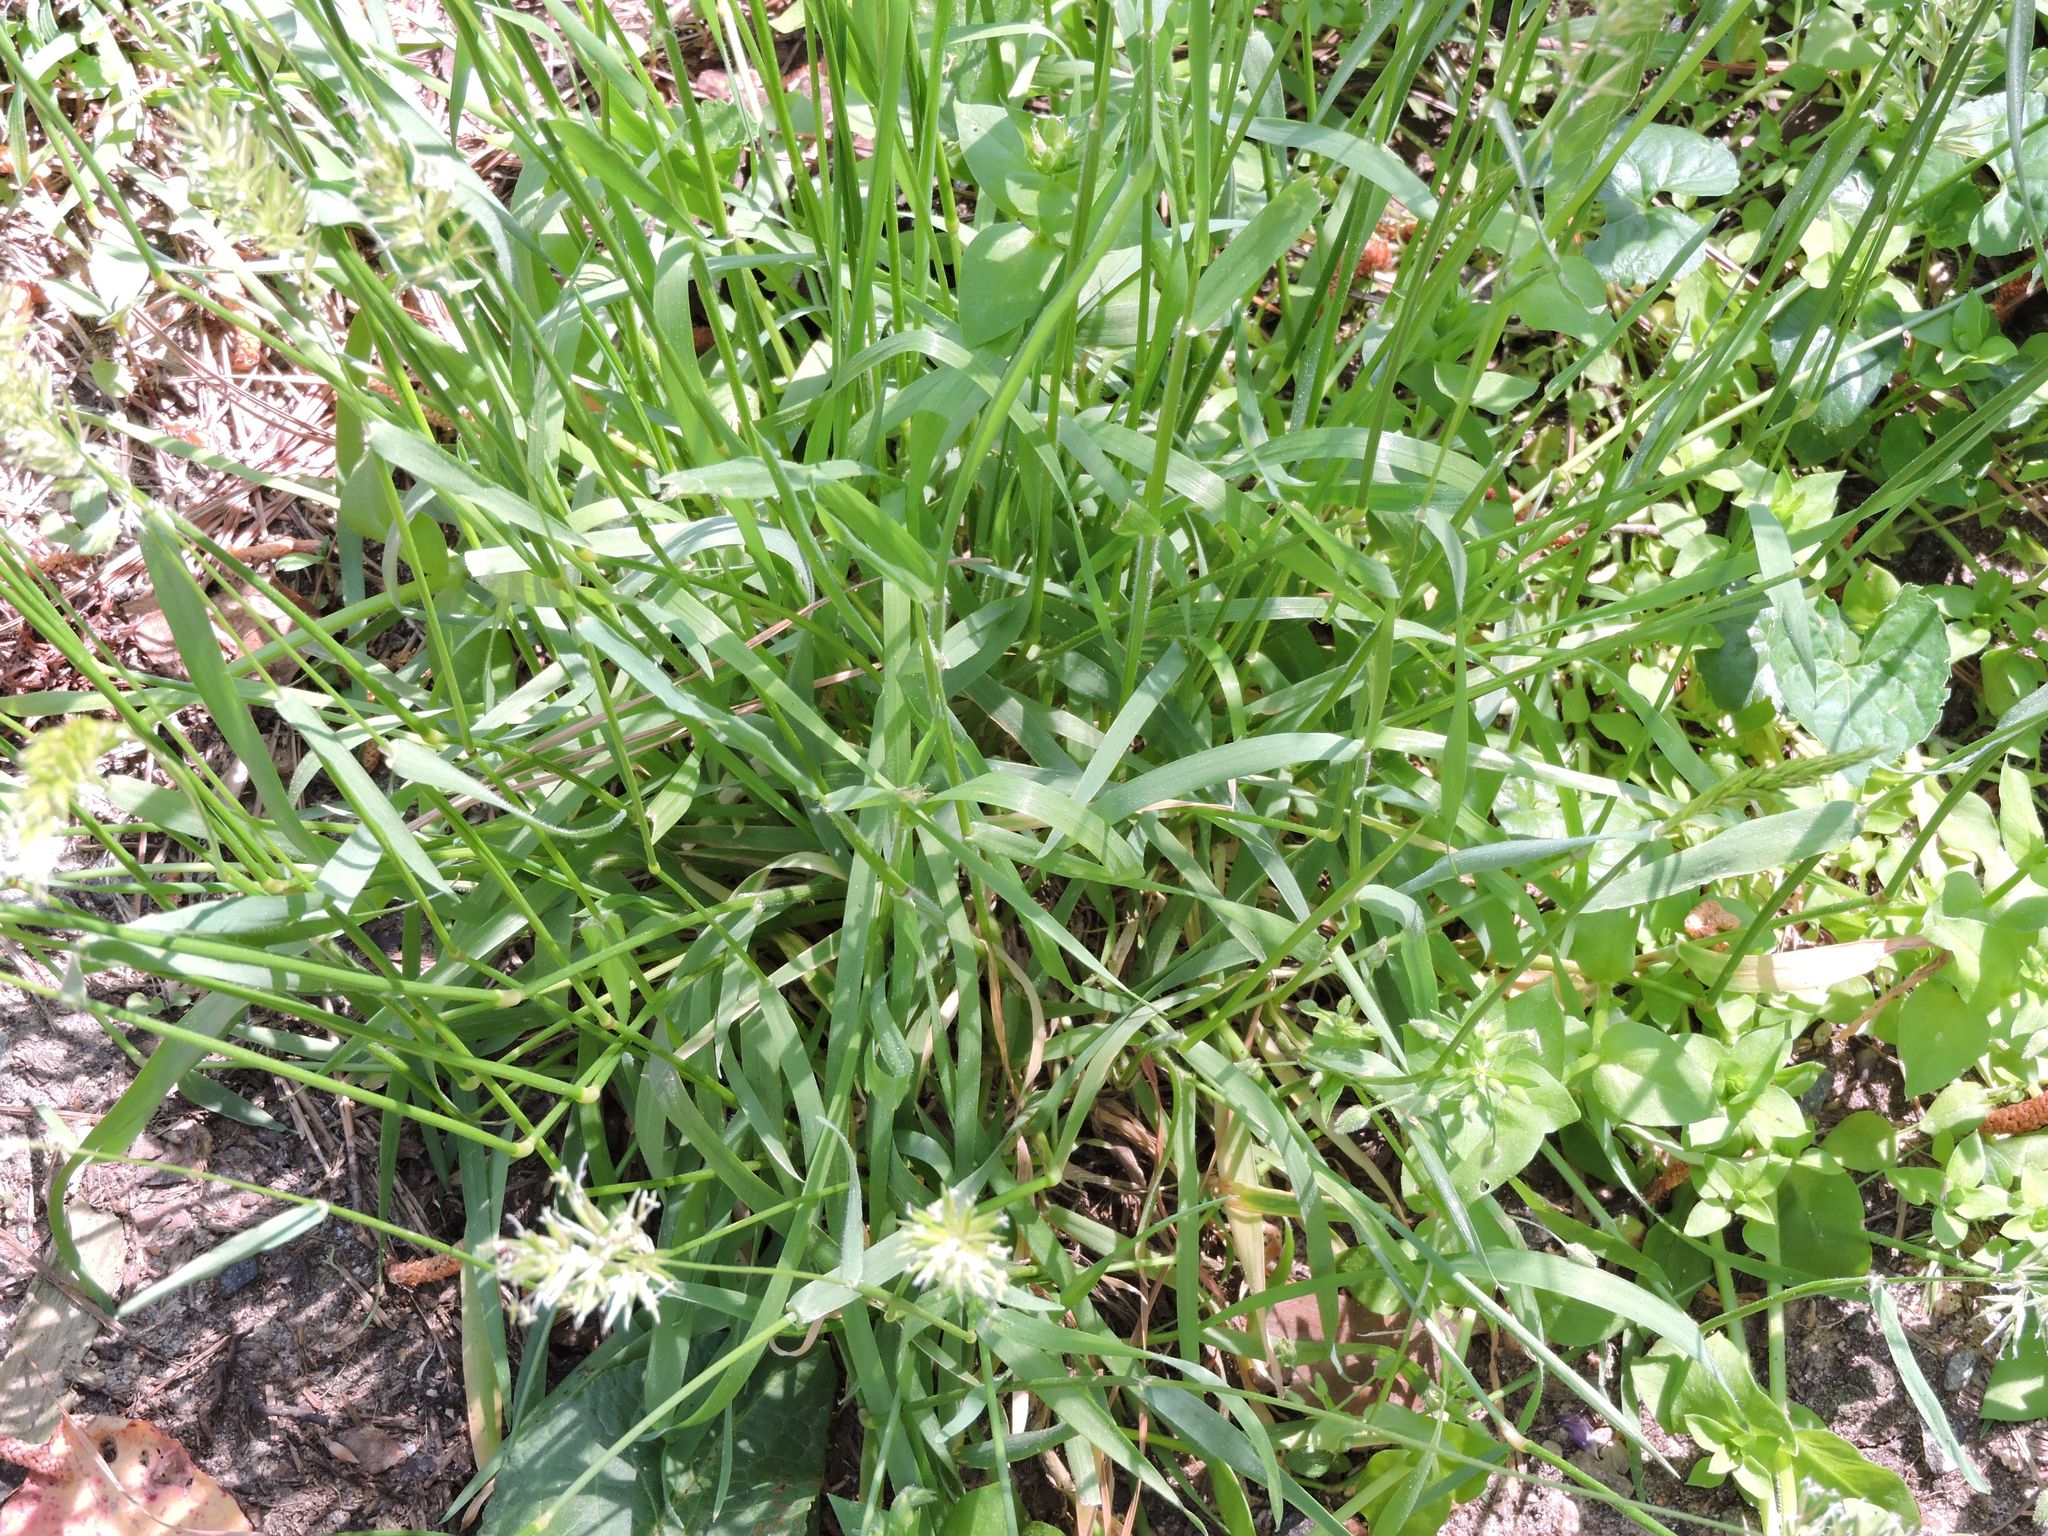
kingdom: Plantae
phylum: Tracheophyta
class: Liliopsida
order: Poales
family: Poaceae
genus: Anthoxanthum
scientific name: Anthoxanthum odoratum
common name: Sweet vernalgrass
